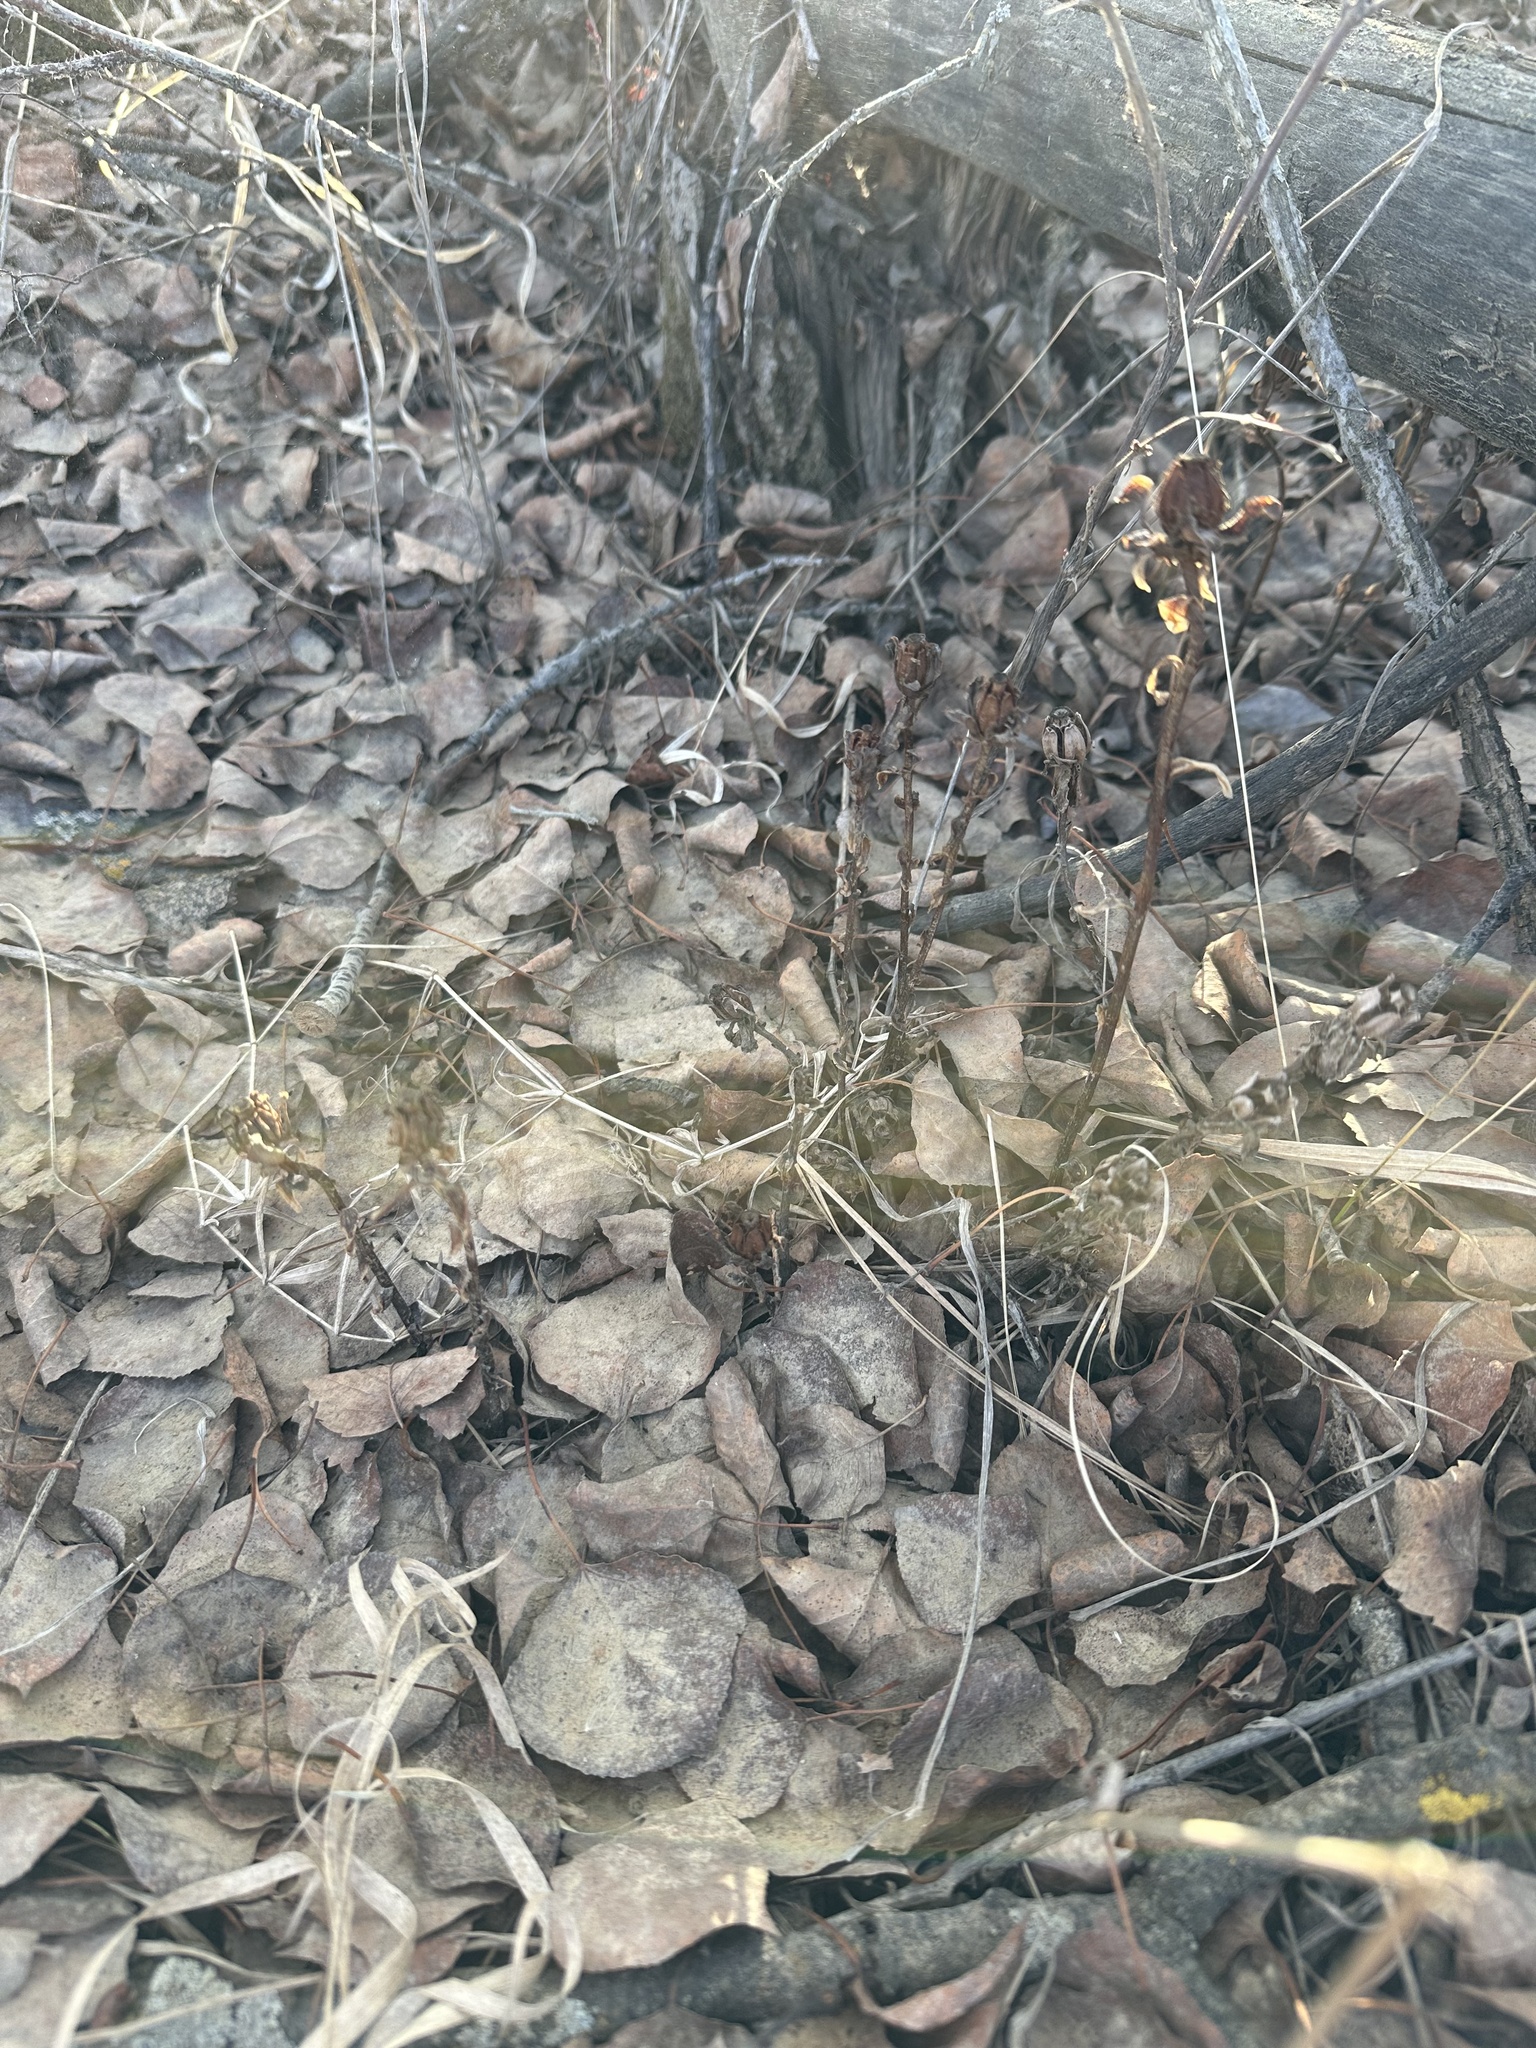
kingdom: Plantae
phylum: Tracheophyta
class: Magnoliopsida
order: Ericales
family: Ericaceae
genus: Monotropa
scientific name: Monotropa uniflora
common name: Convulsion root
